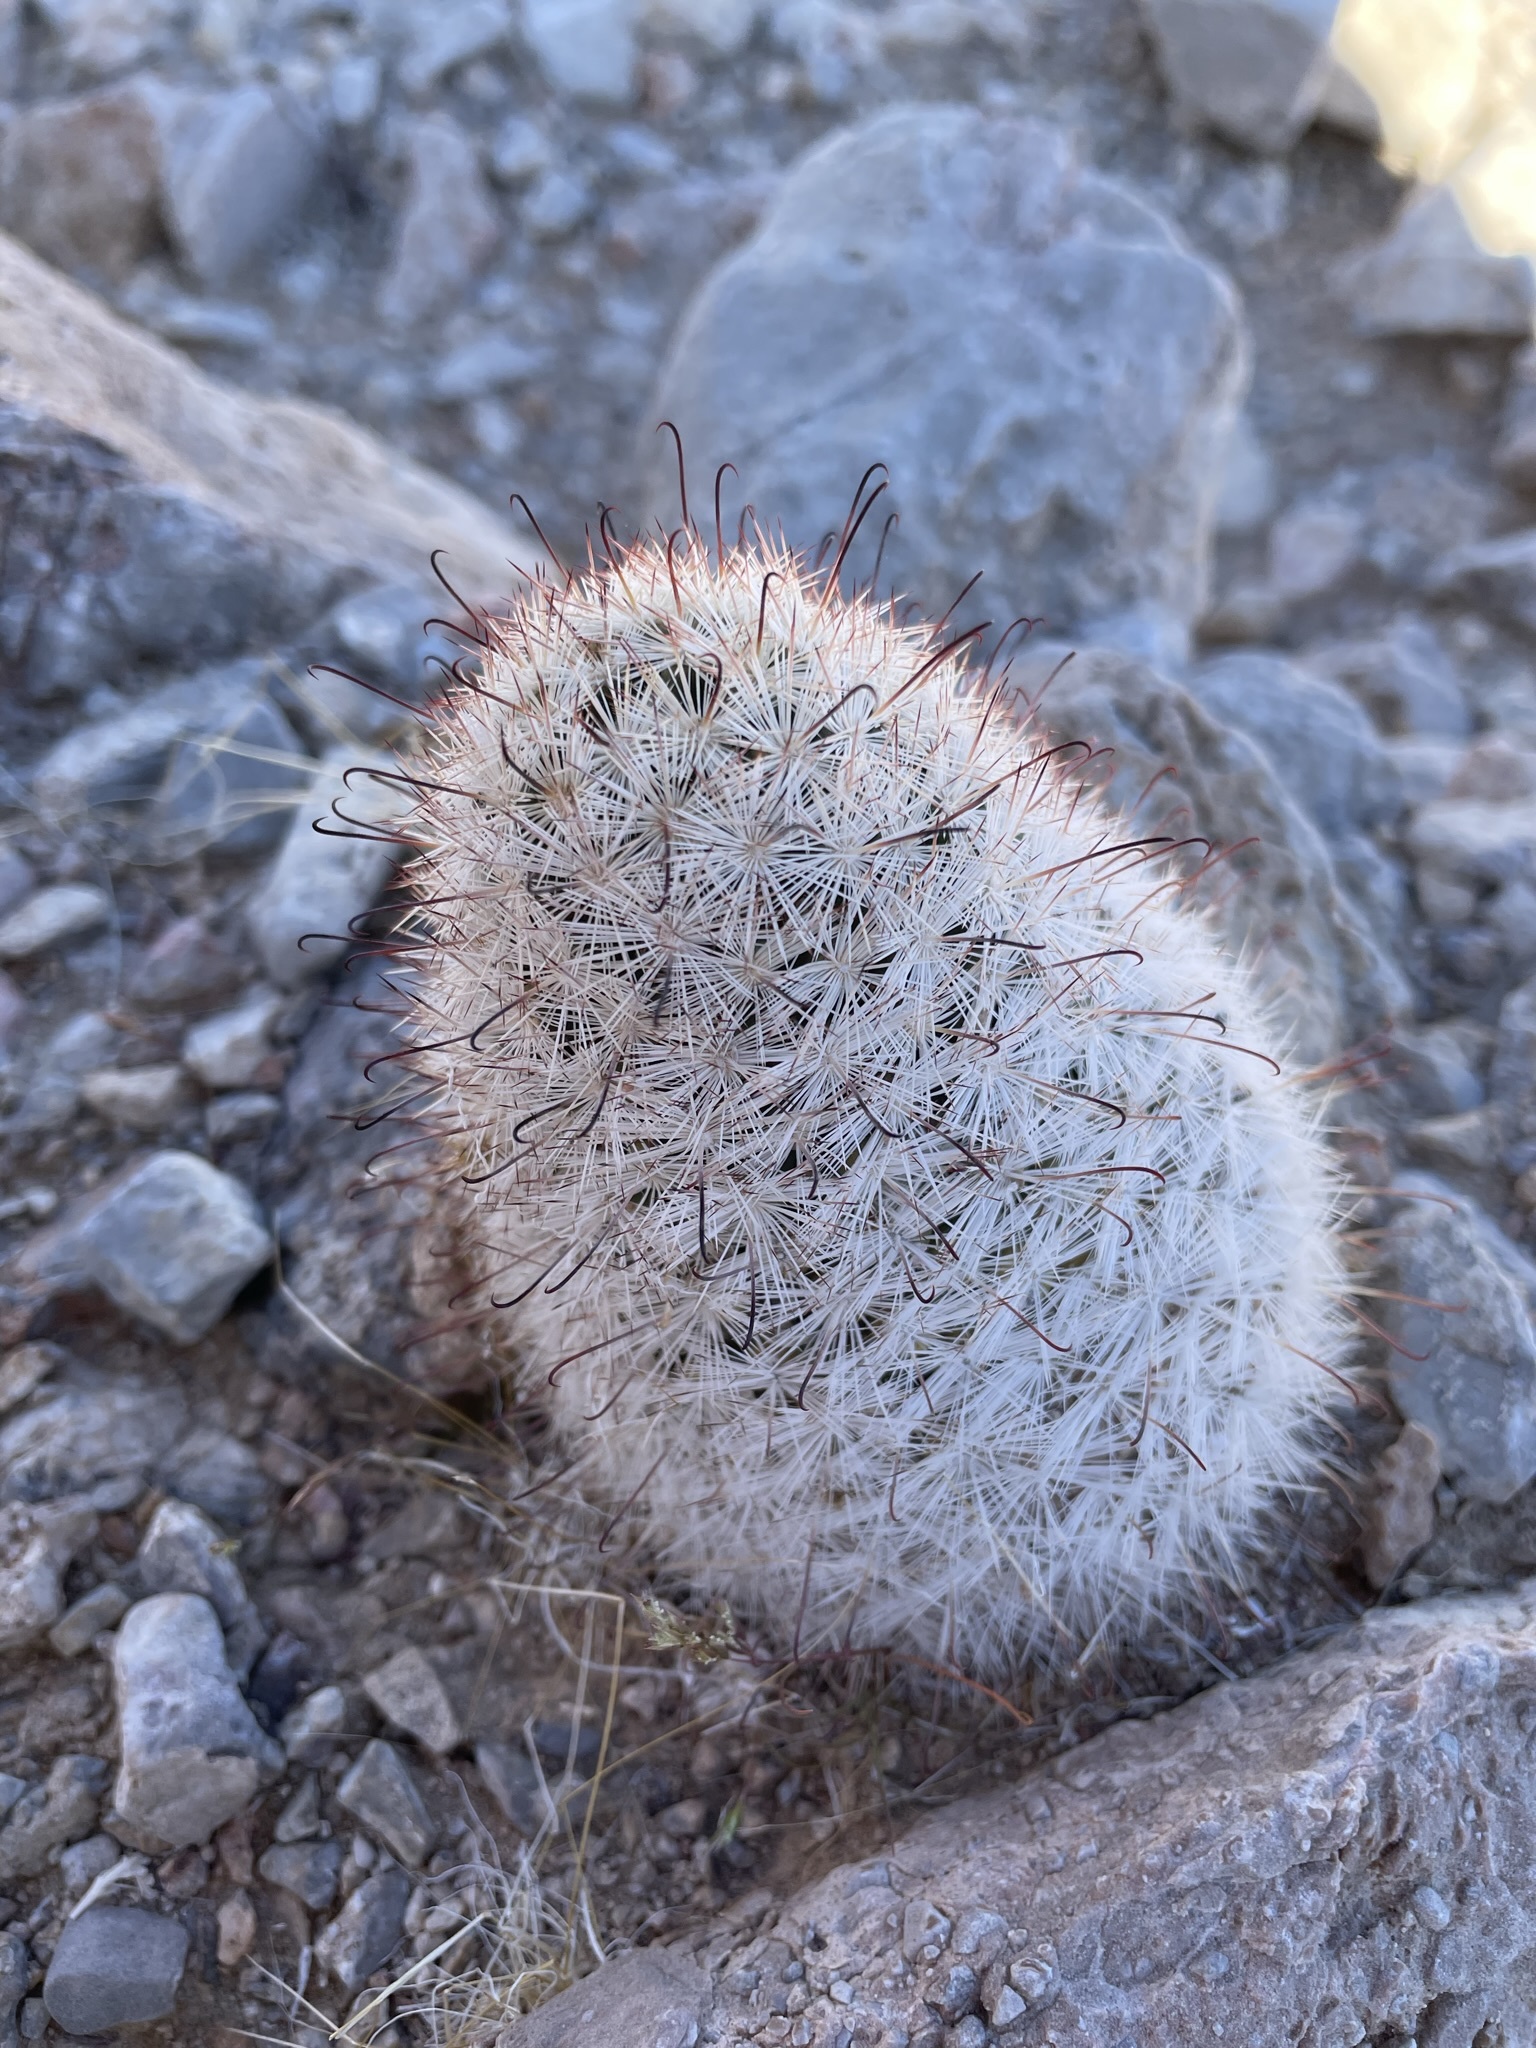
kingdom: Plantae
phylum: Tracheophyta
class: Magnoliopsida
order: Caryophyllales
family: Cactaceae
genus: Cochemiea
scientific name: Cochemiea tetrancistra
